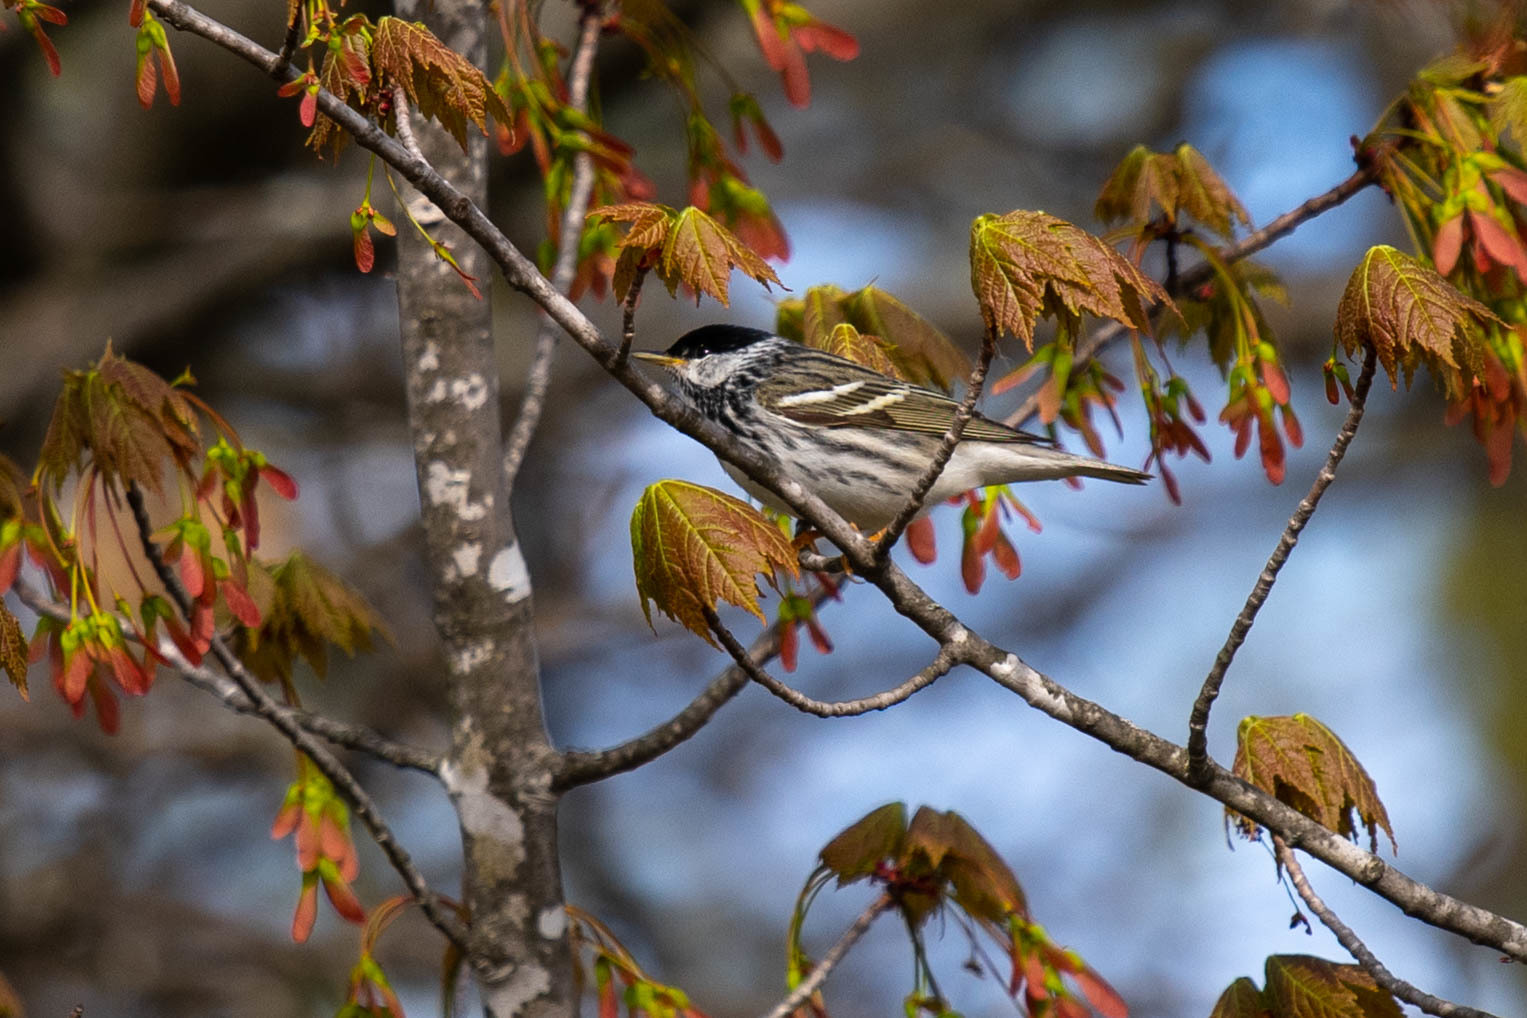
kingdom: Animalia
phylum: Chordata
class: Aves
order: Passeriformes
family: Parulidae
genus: Setophaga
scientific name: Setophaga striata
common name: Blackpoll warbler
